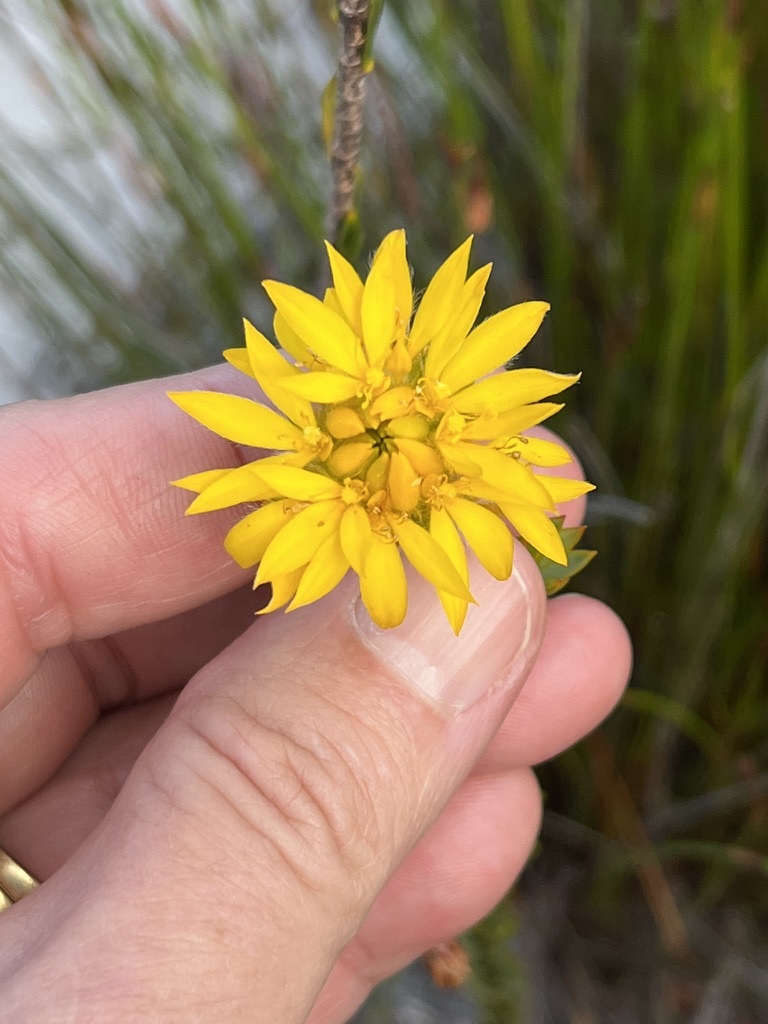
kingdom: Plantae
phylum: Tracheophyta
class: Magnoliopsida
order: Malvales
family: Thymelaeaceae
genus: Lachnaea
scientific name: Lachnaea aurea
